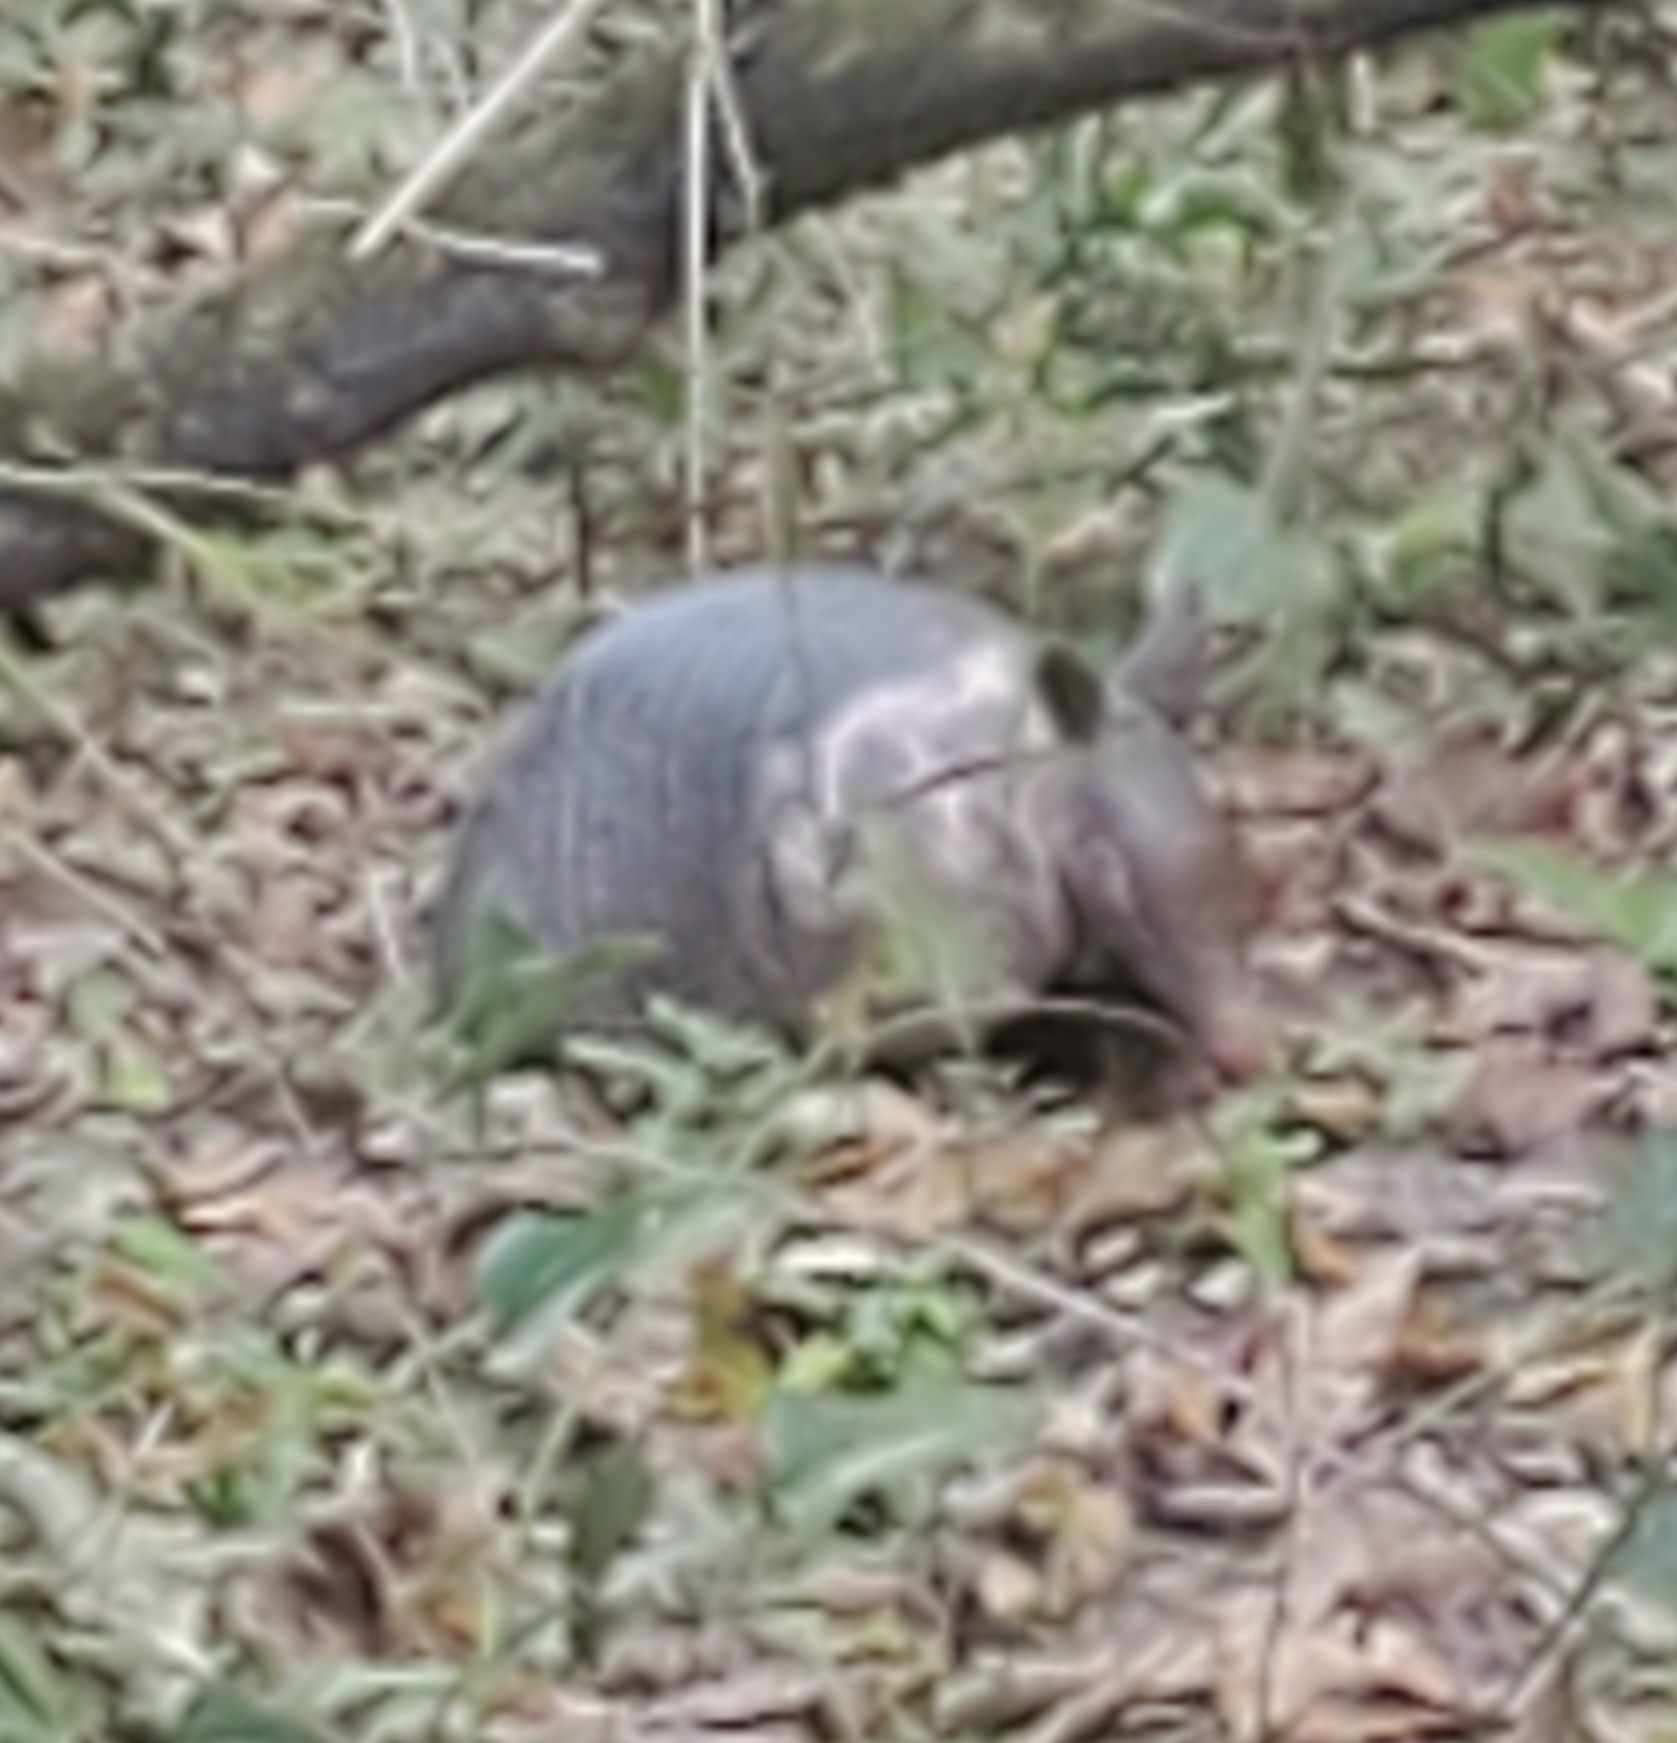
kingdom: Animalia
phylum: Chordata
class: Mammalia
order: Cingulata
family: Dasypodidae
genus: Dasypus
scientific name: Dasypus novemcinctus
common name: Nine-banded armadillo
